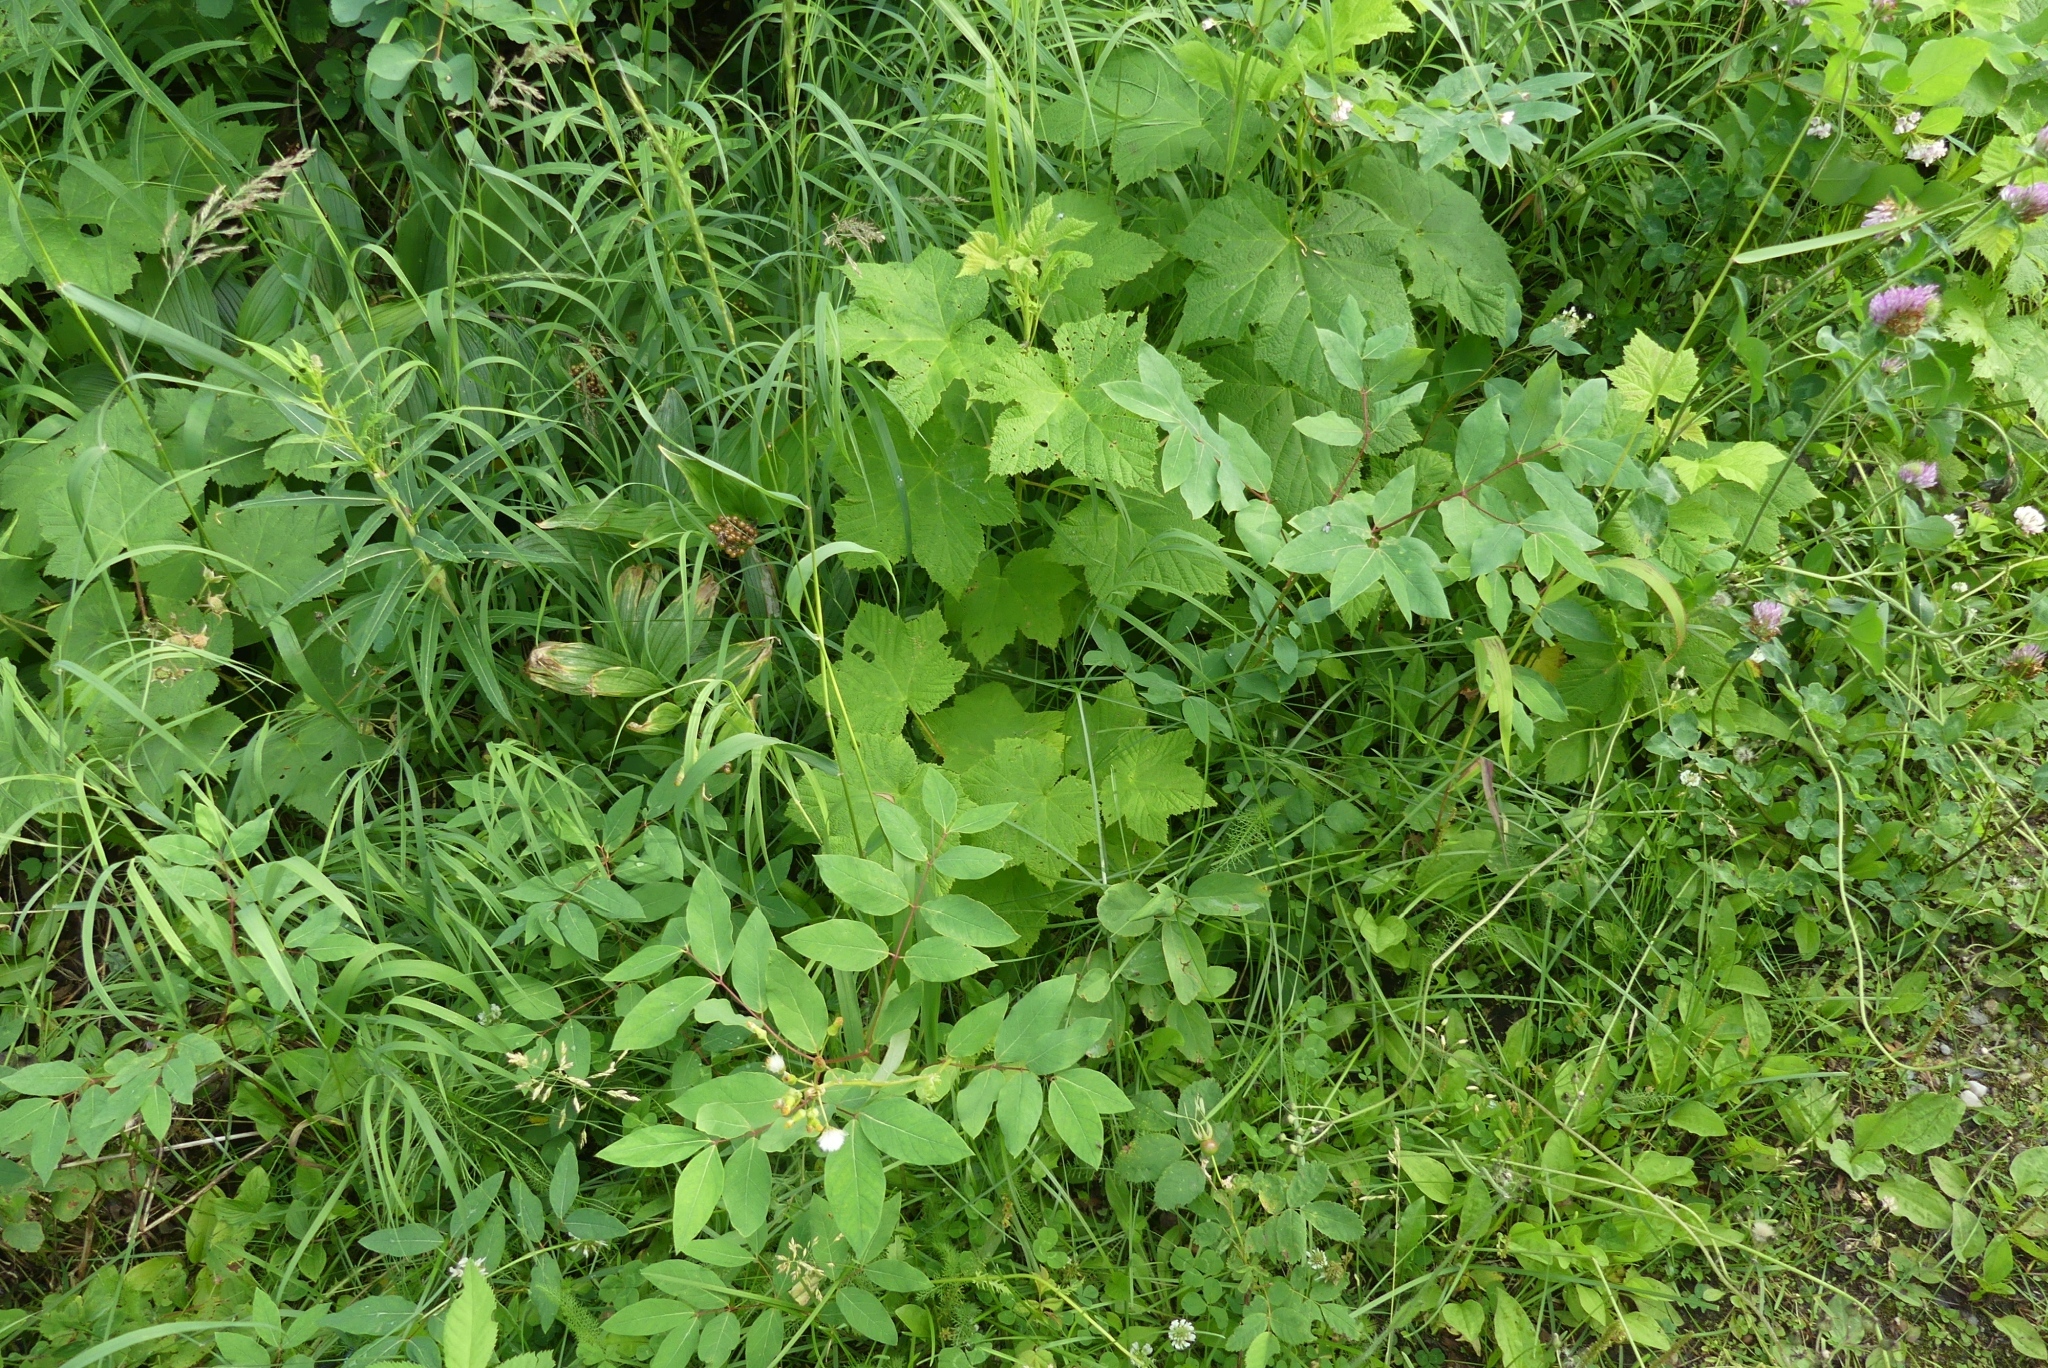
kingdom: Plantae
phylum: Tracheophyta
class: Magnoliopsida
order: Rosales
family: Rosaceae
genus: Rubus
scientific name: Rubus parviflorus
